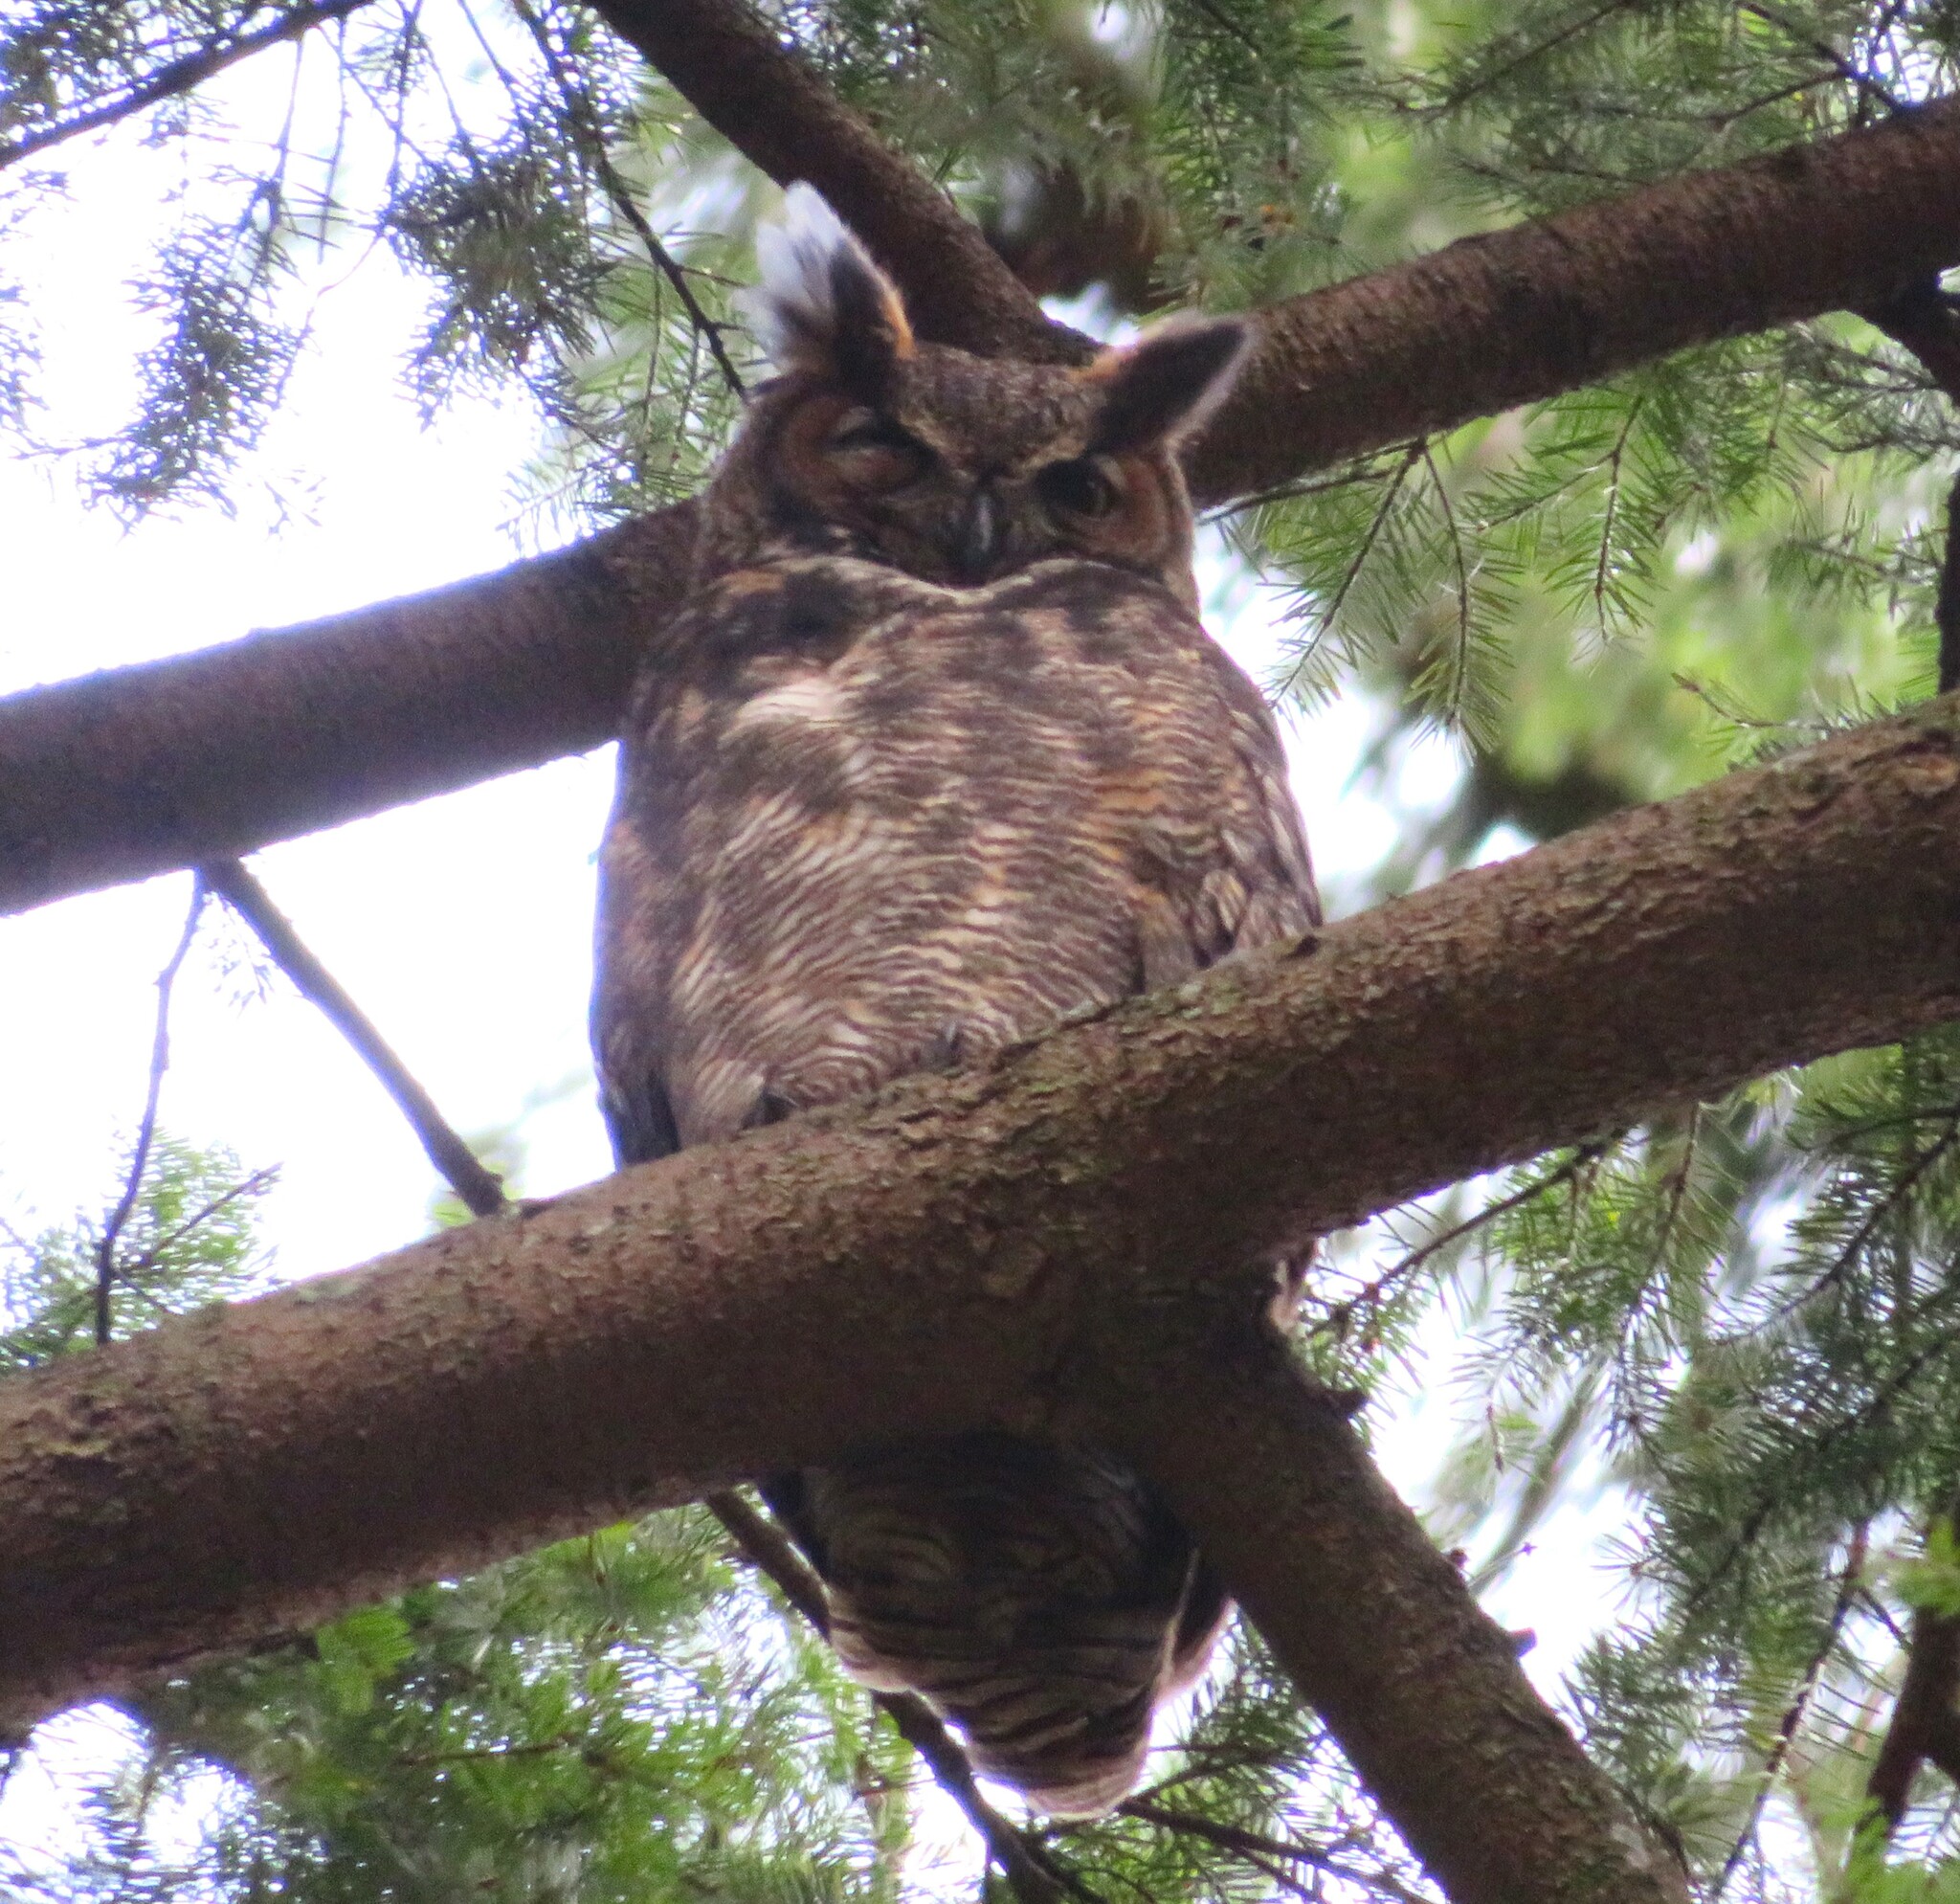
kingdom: Animalia
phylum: Chordata
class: Aves
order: Strigiformes
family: Strigidae
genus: Bubo
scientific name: Bubo virginianus
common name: Great horned owl
